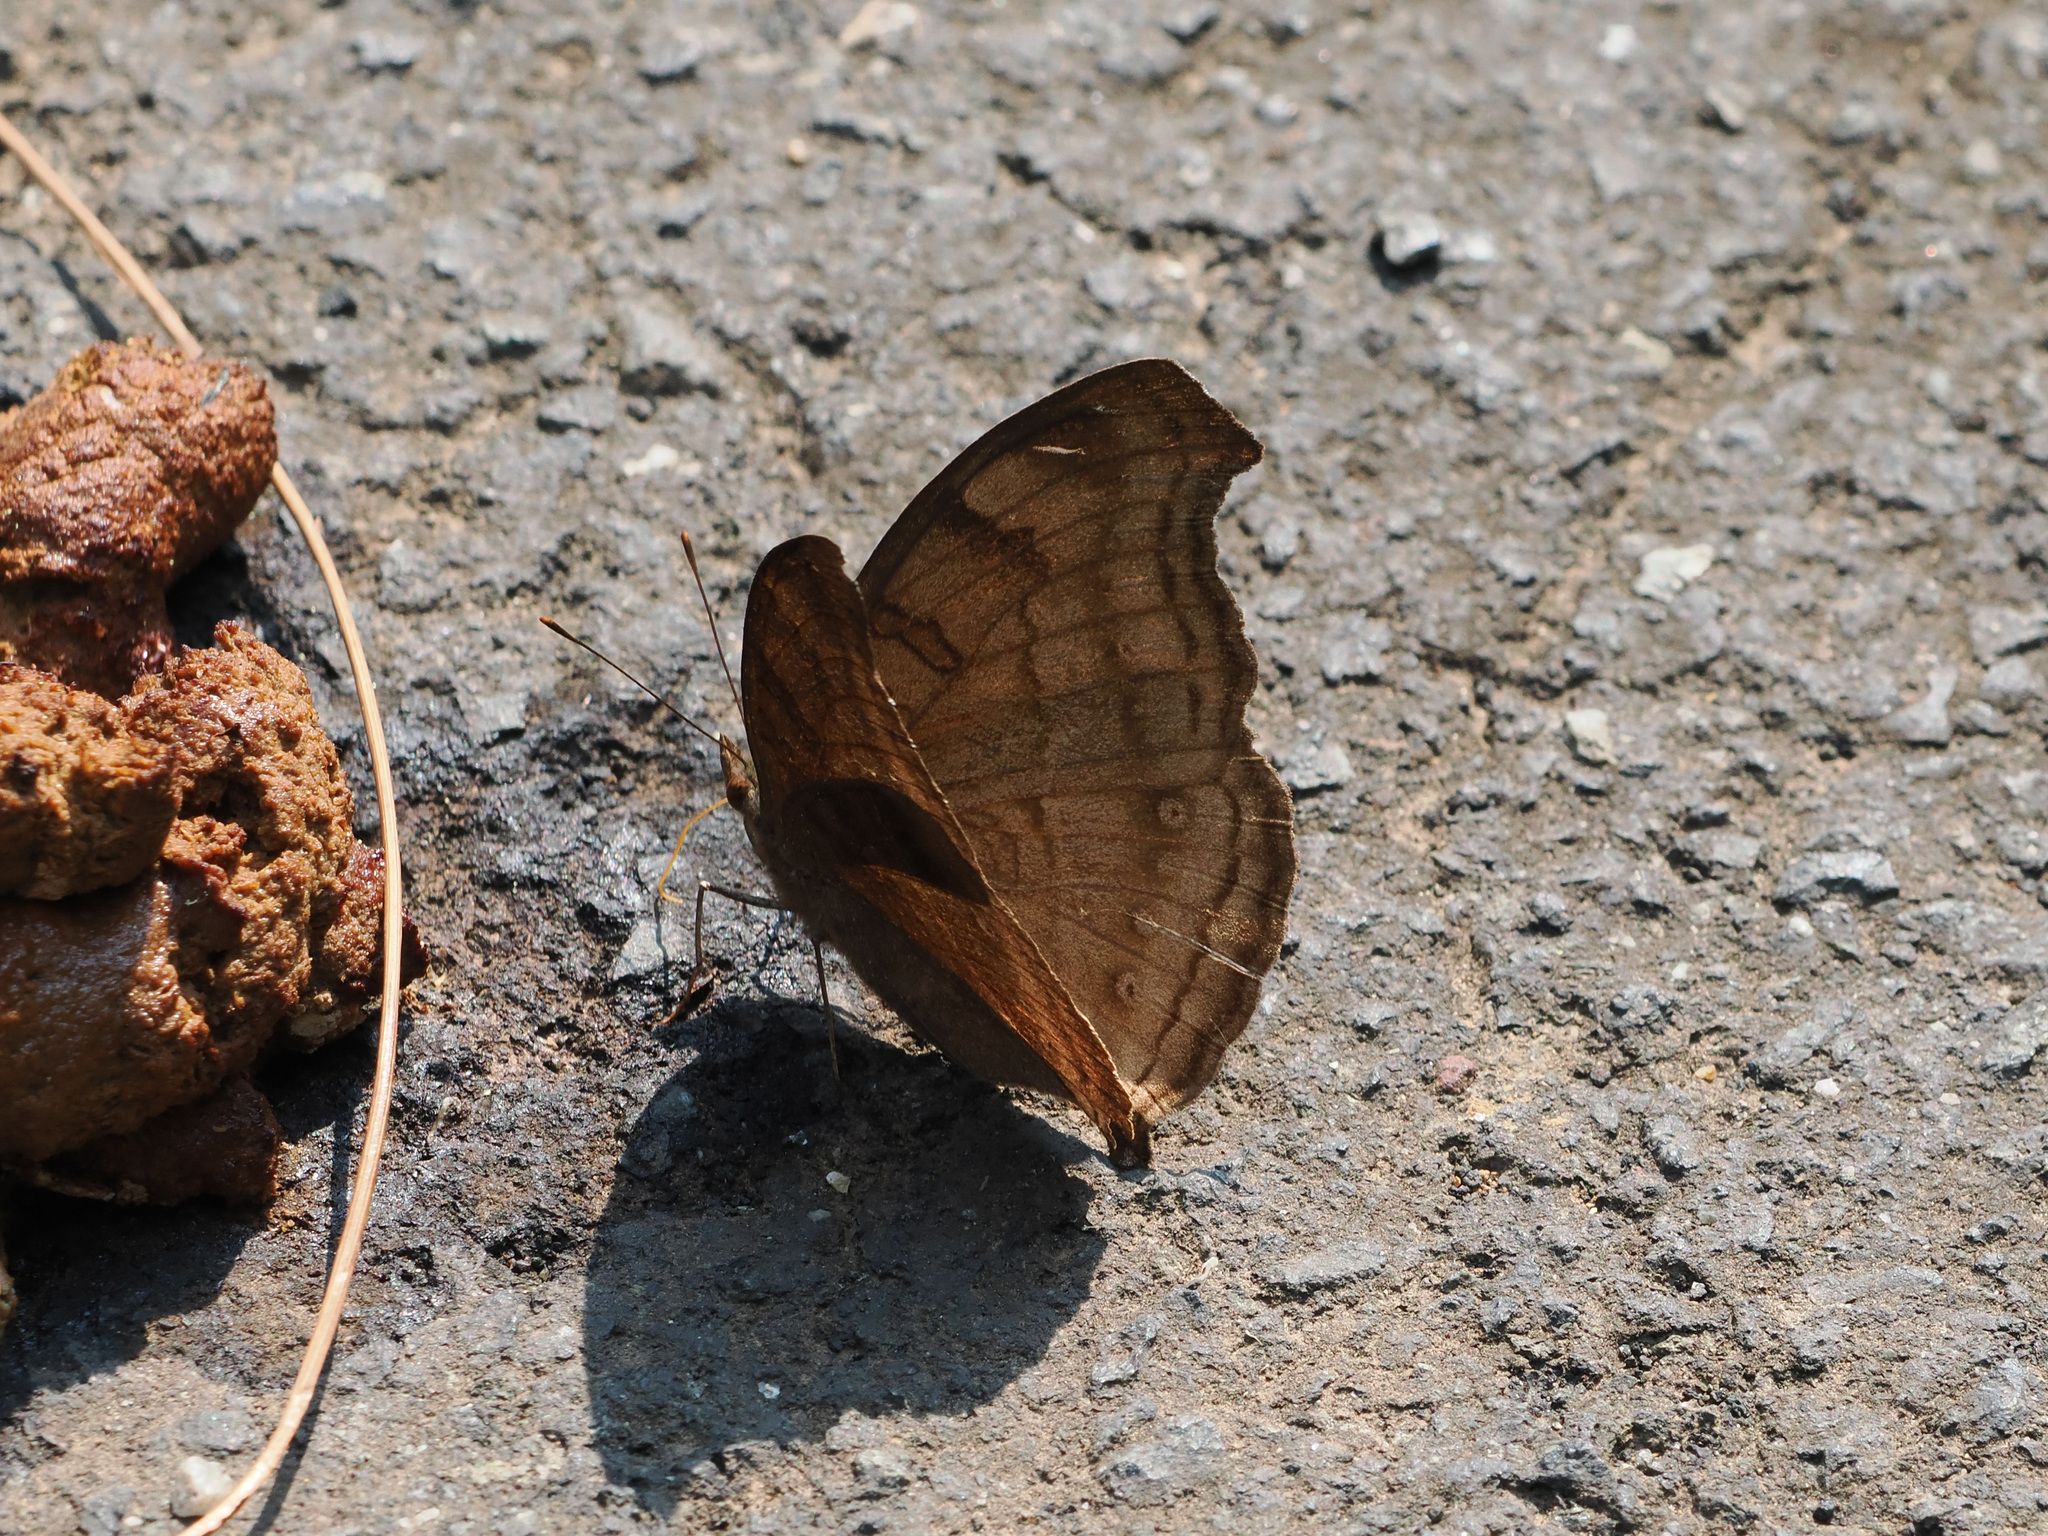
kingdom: Animalia
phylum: Arthropoda
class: Insecta
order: Lepidoptera
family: Nymphalidae
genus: Junonia
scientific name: Junonia iphita
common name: Chocolate pansy
